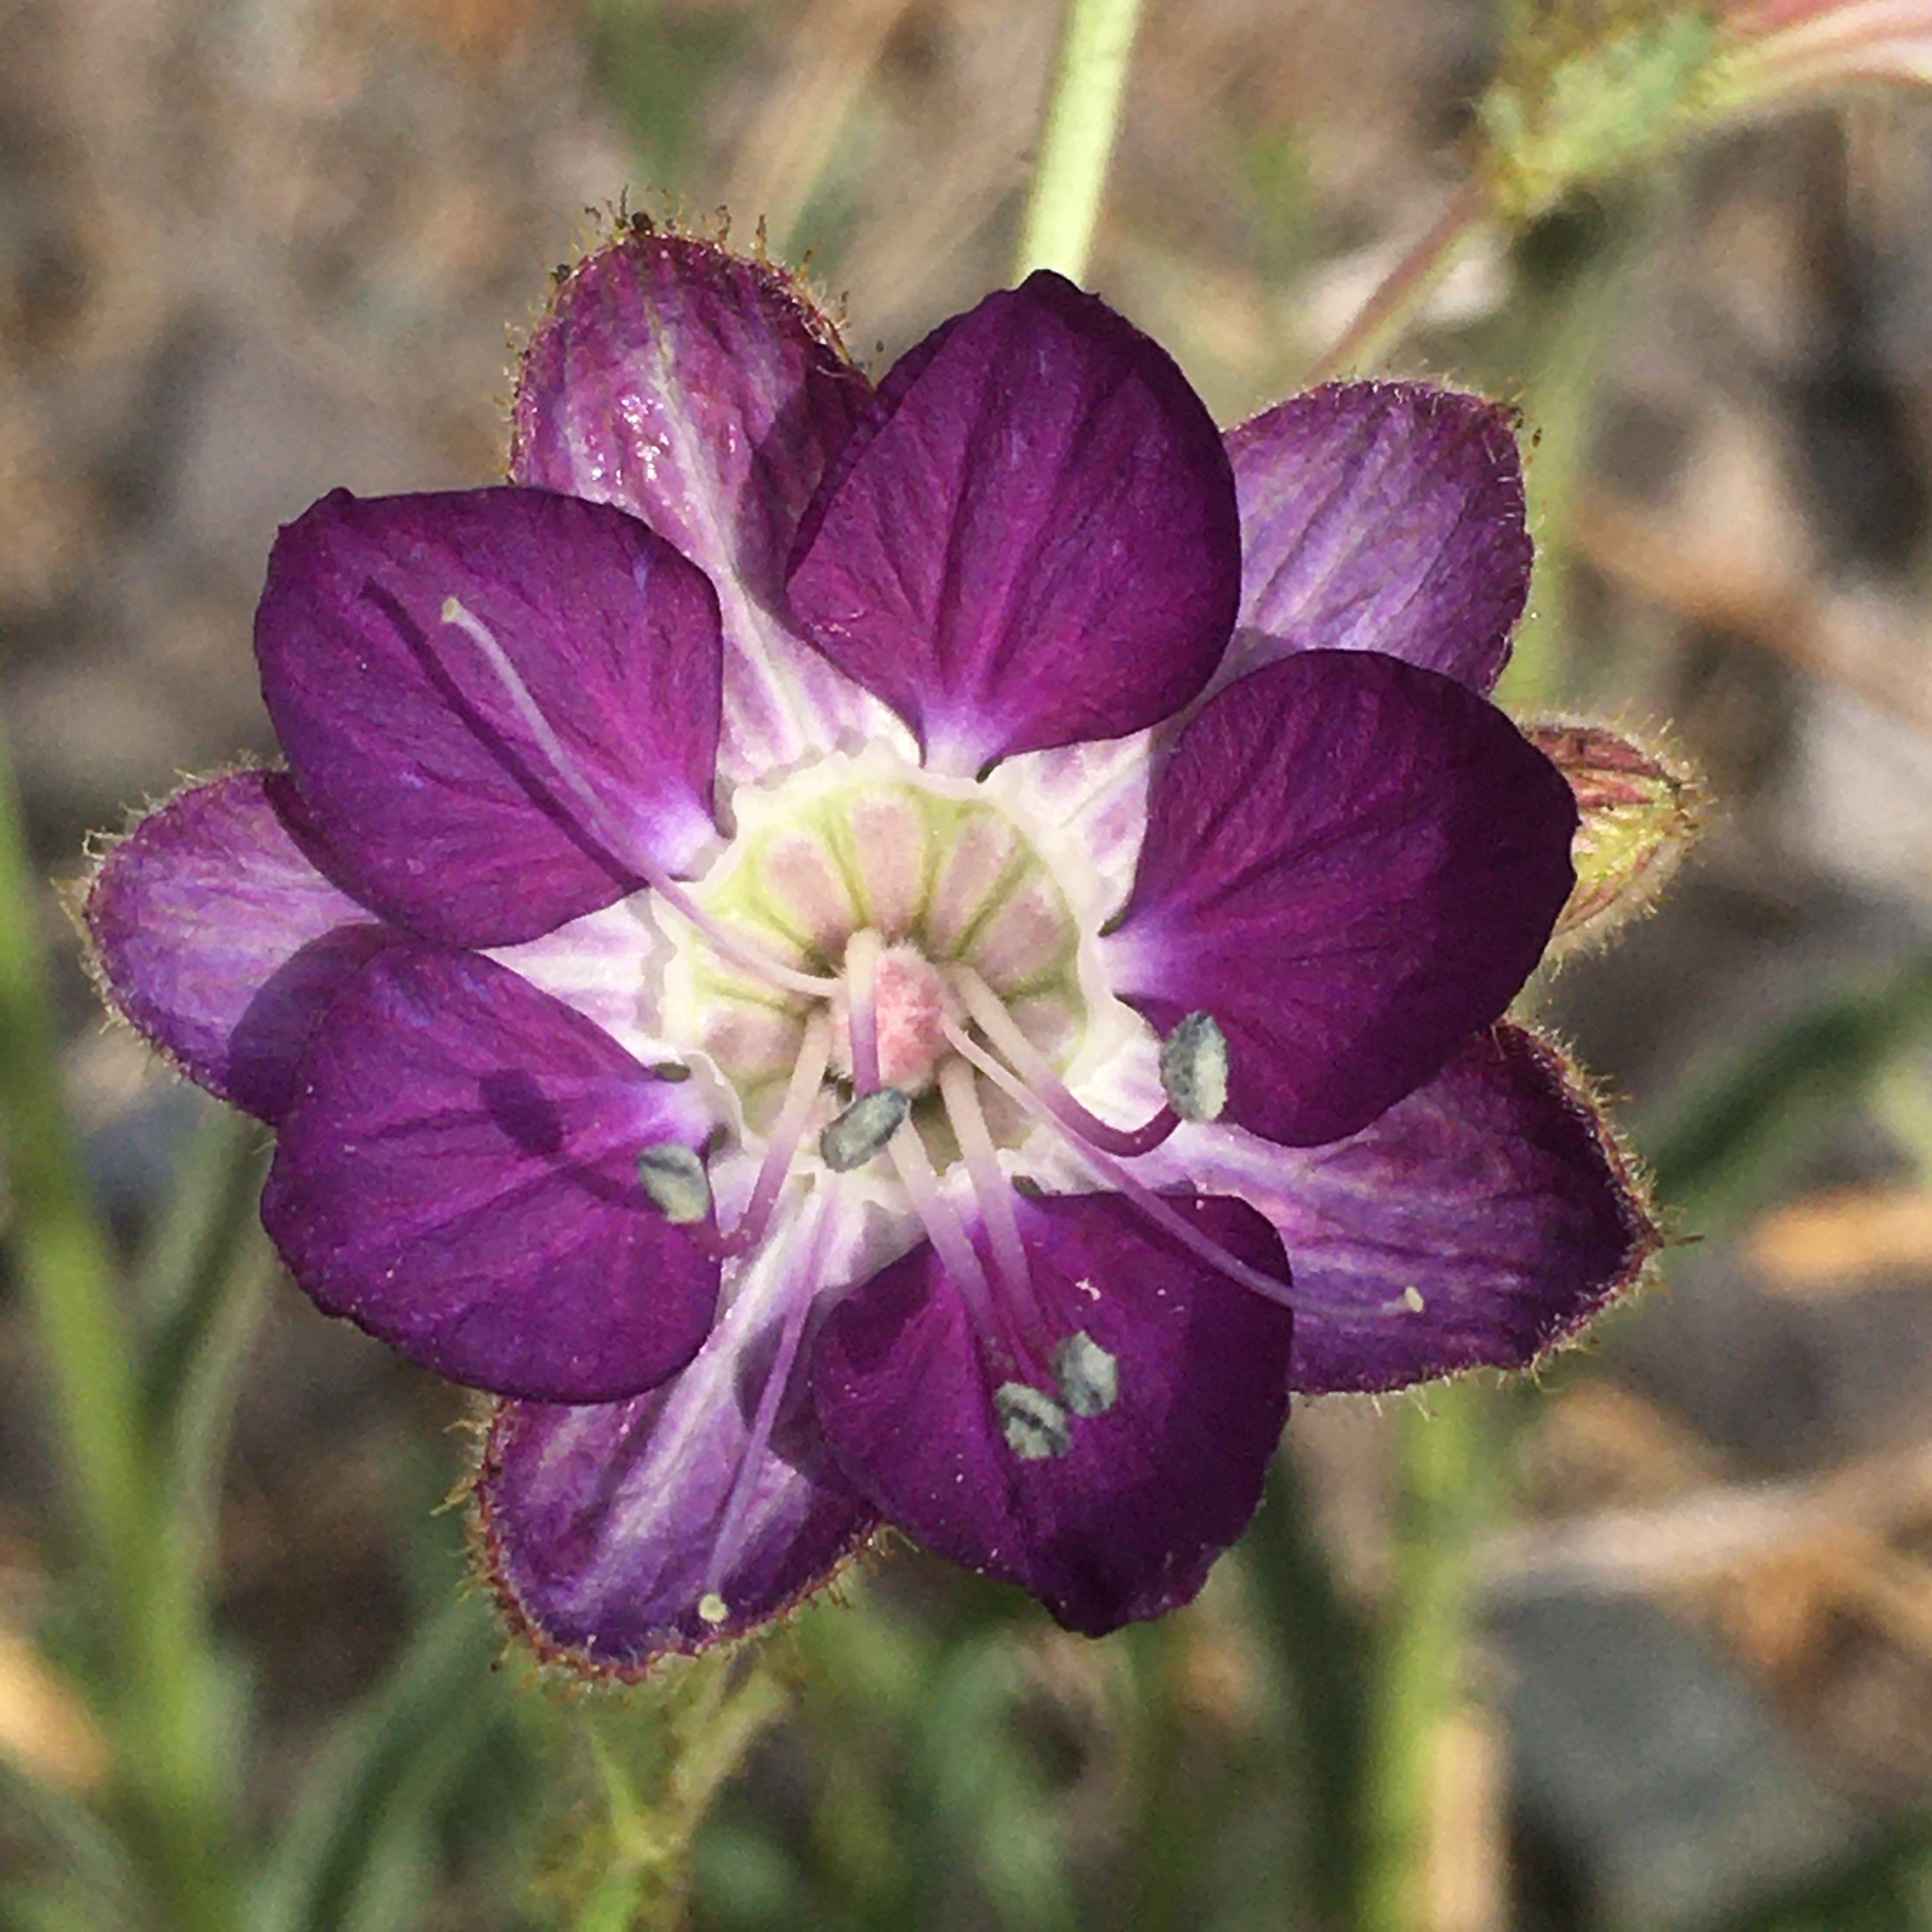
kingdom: Plantae
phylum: Tracheophyta
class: Magnoliopsida
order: Malpighiales
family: Malesherbiaceae
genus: Malesherbia
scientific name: Malesherbia linearifolia
